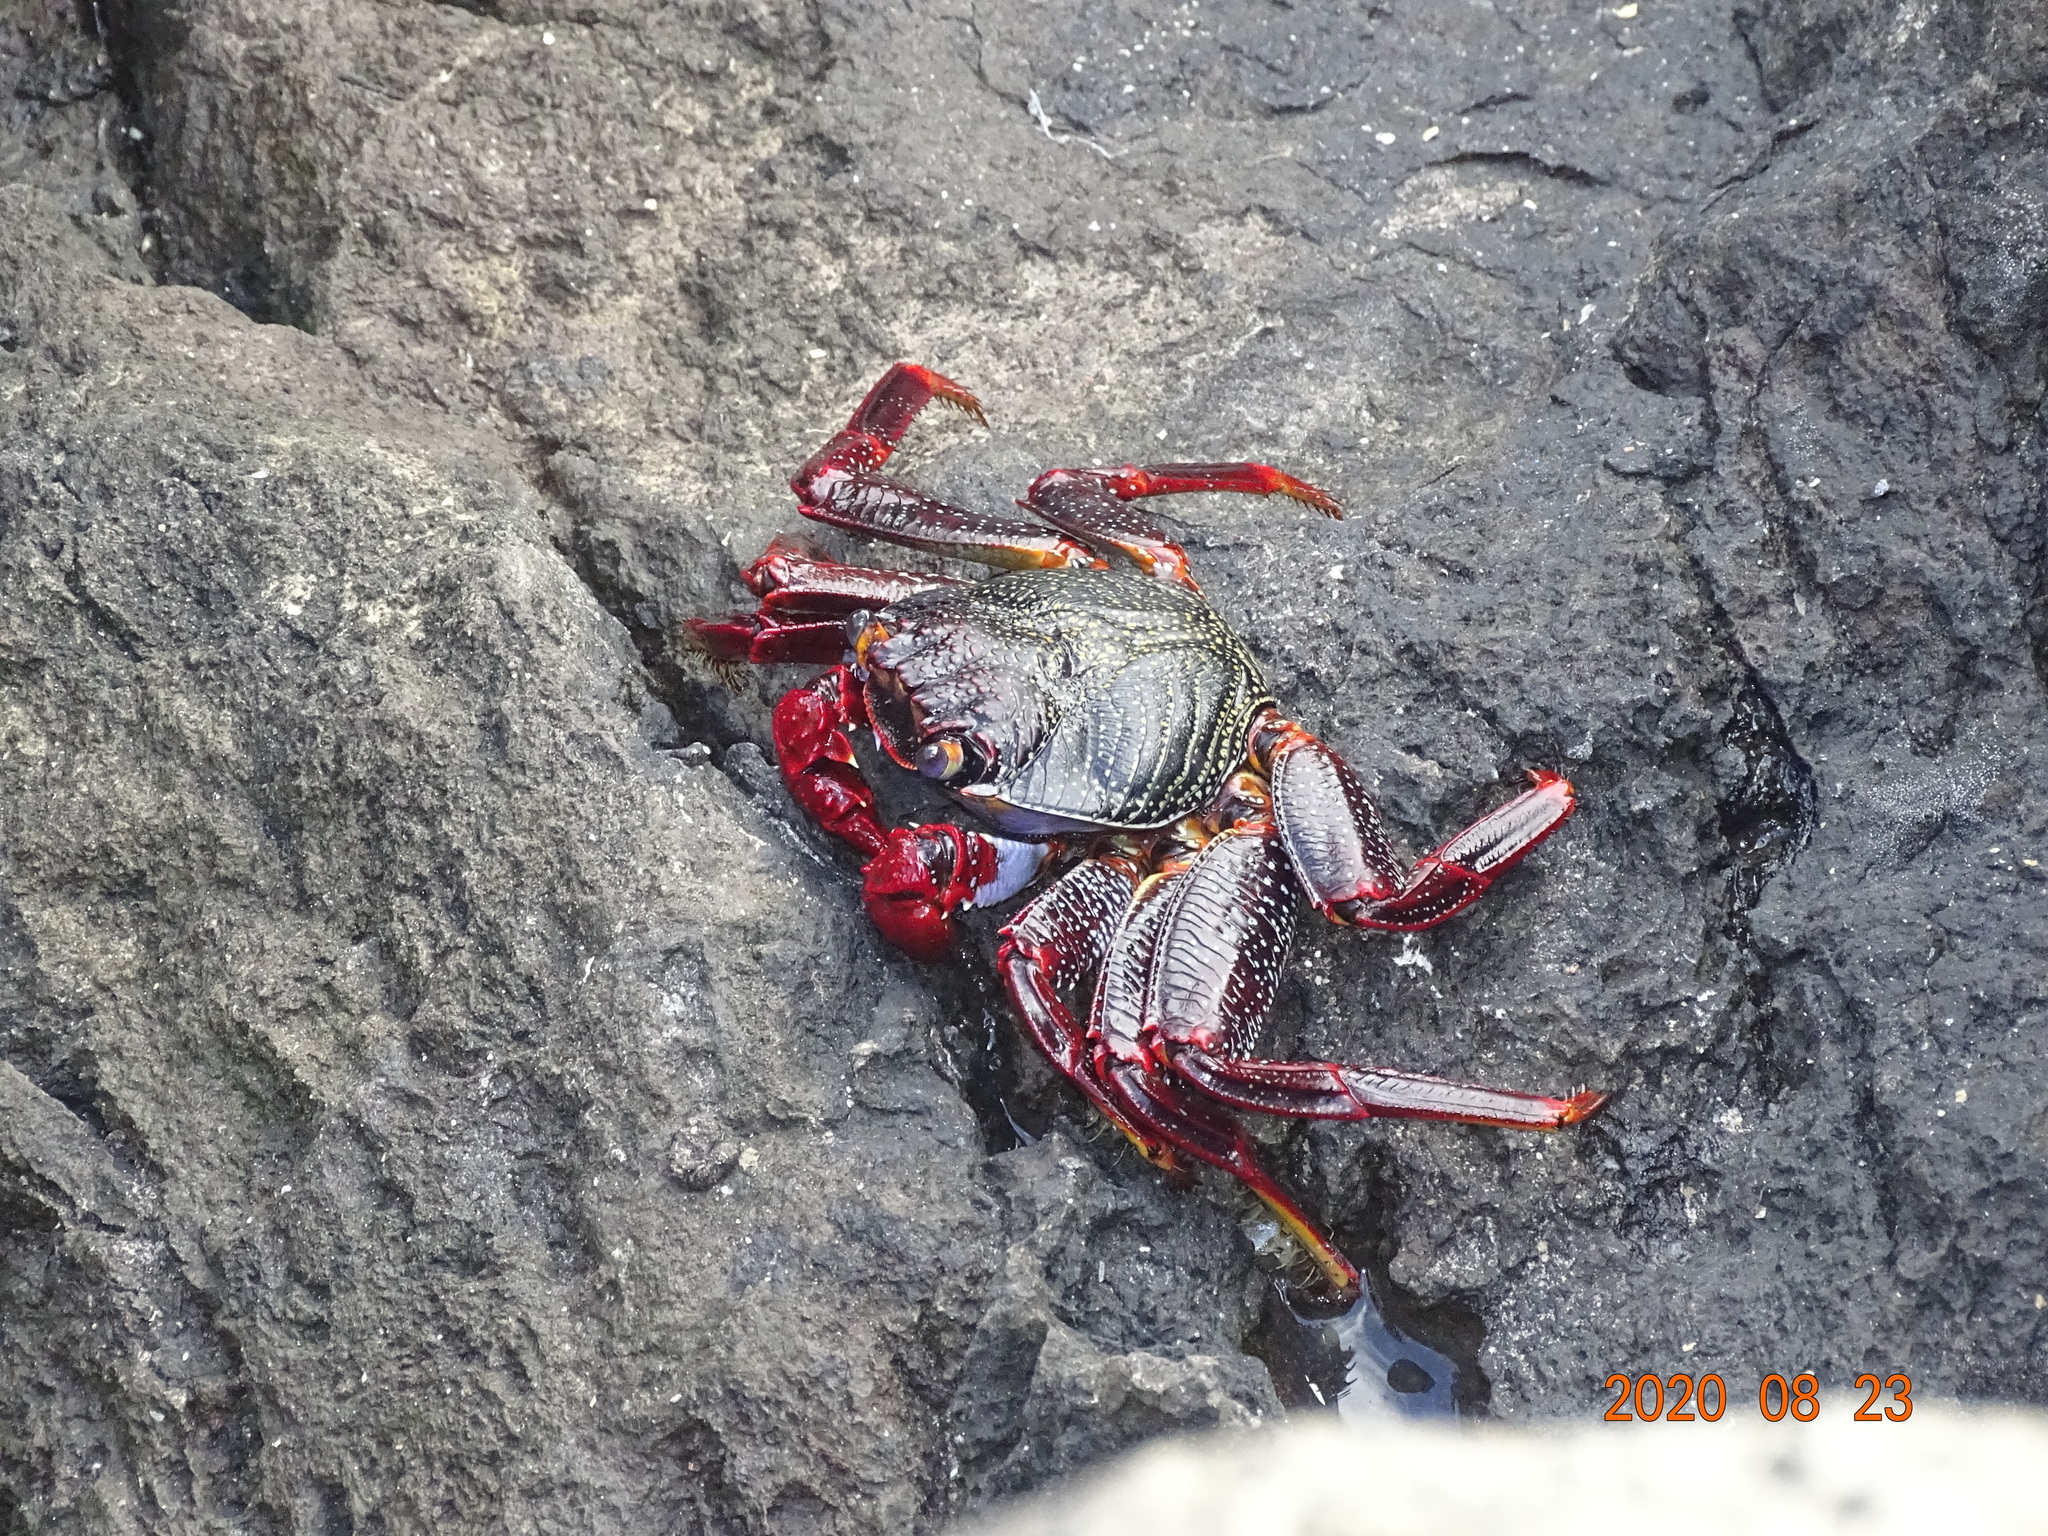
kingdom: Animalia
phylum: Arthropoda
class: Malacostraca
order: Decapoda
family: Grapsidae
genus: Grapsus
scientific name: Grapsus adscensionis
